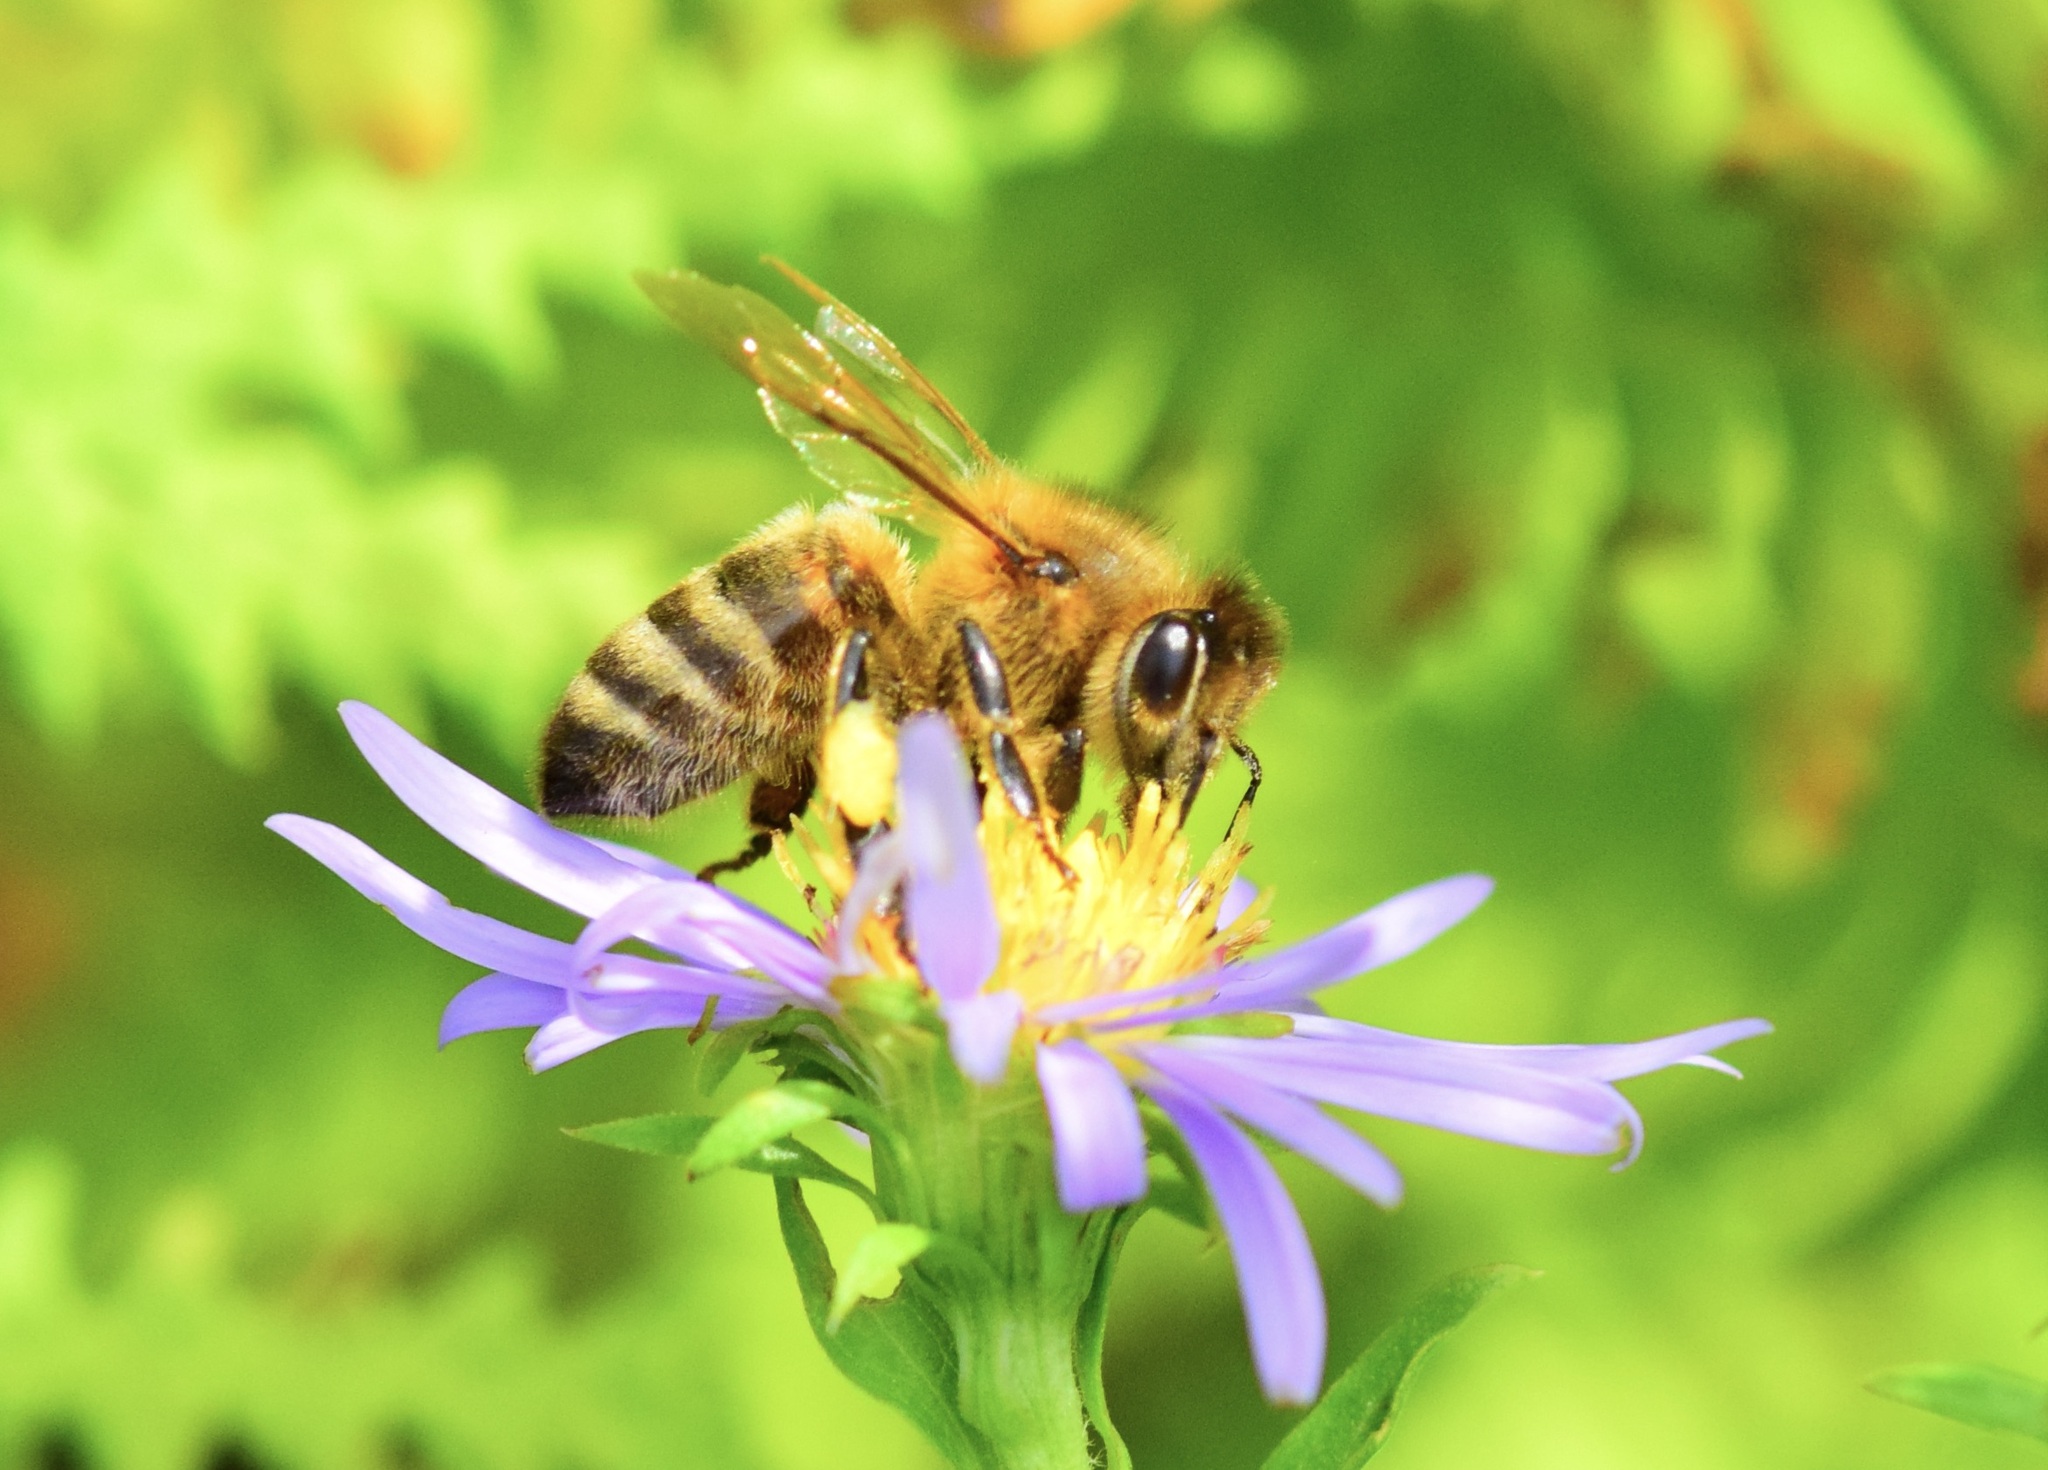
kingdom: Animalia
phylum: Arthropoda
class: Insecta
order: Hymenoptera
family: Apidae
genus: Apis
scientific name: Apis mellifera
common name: Honey bee
